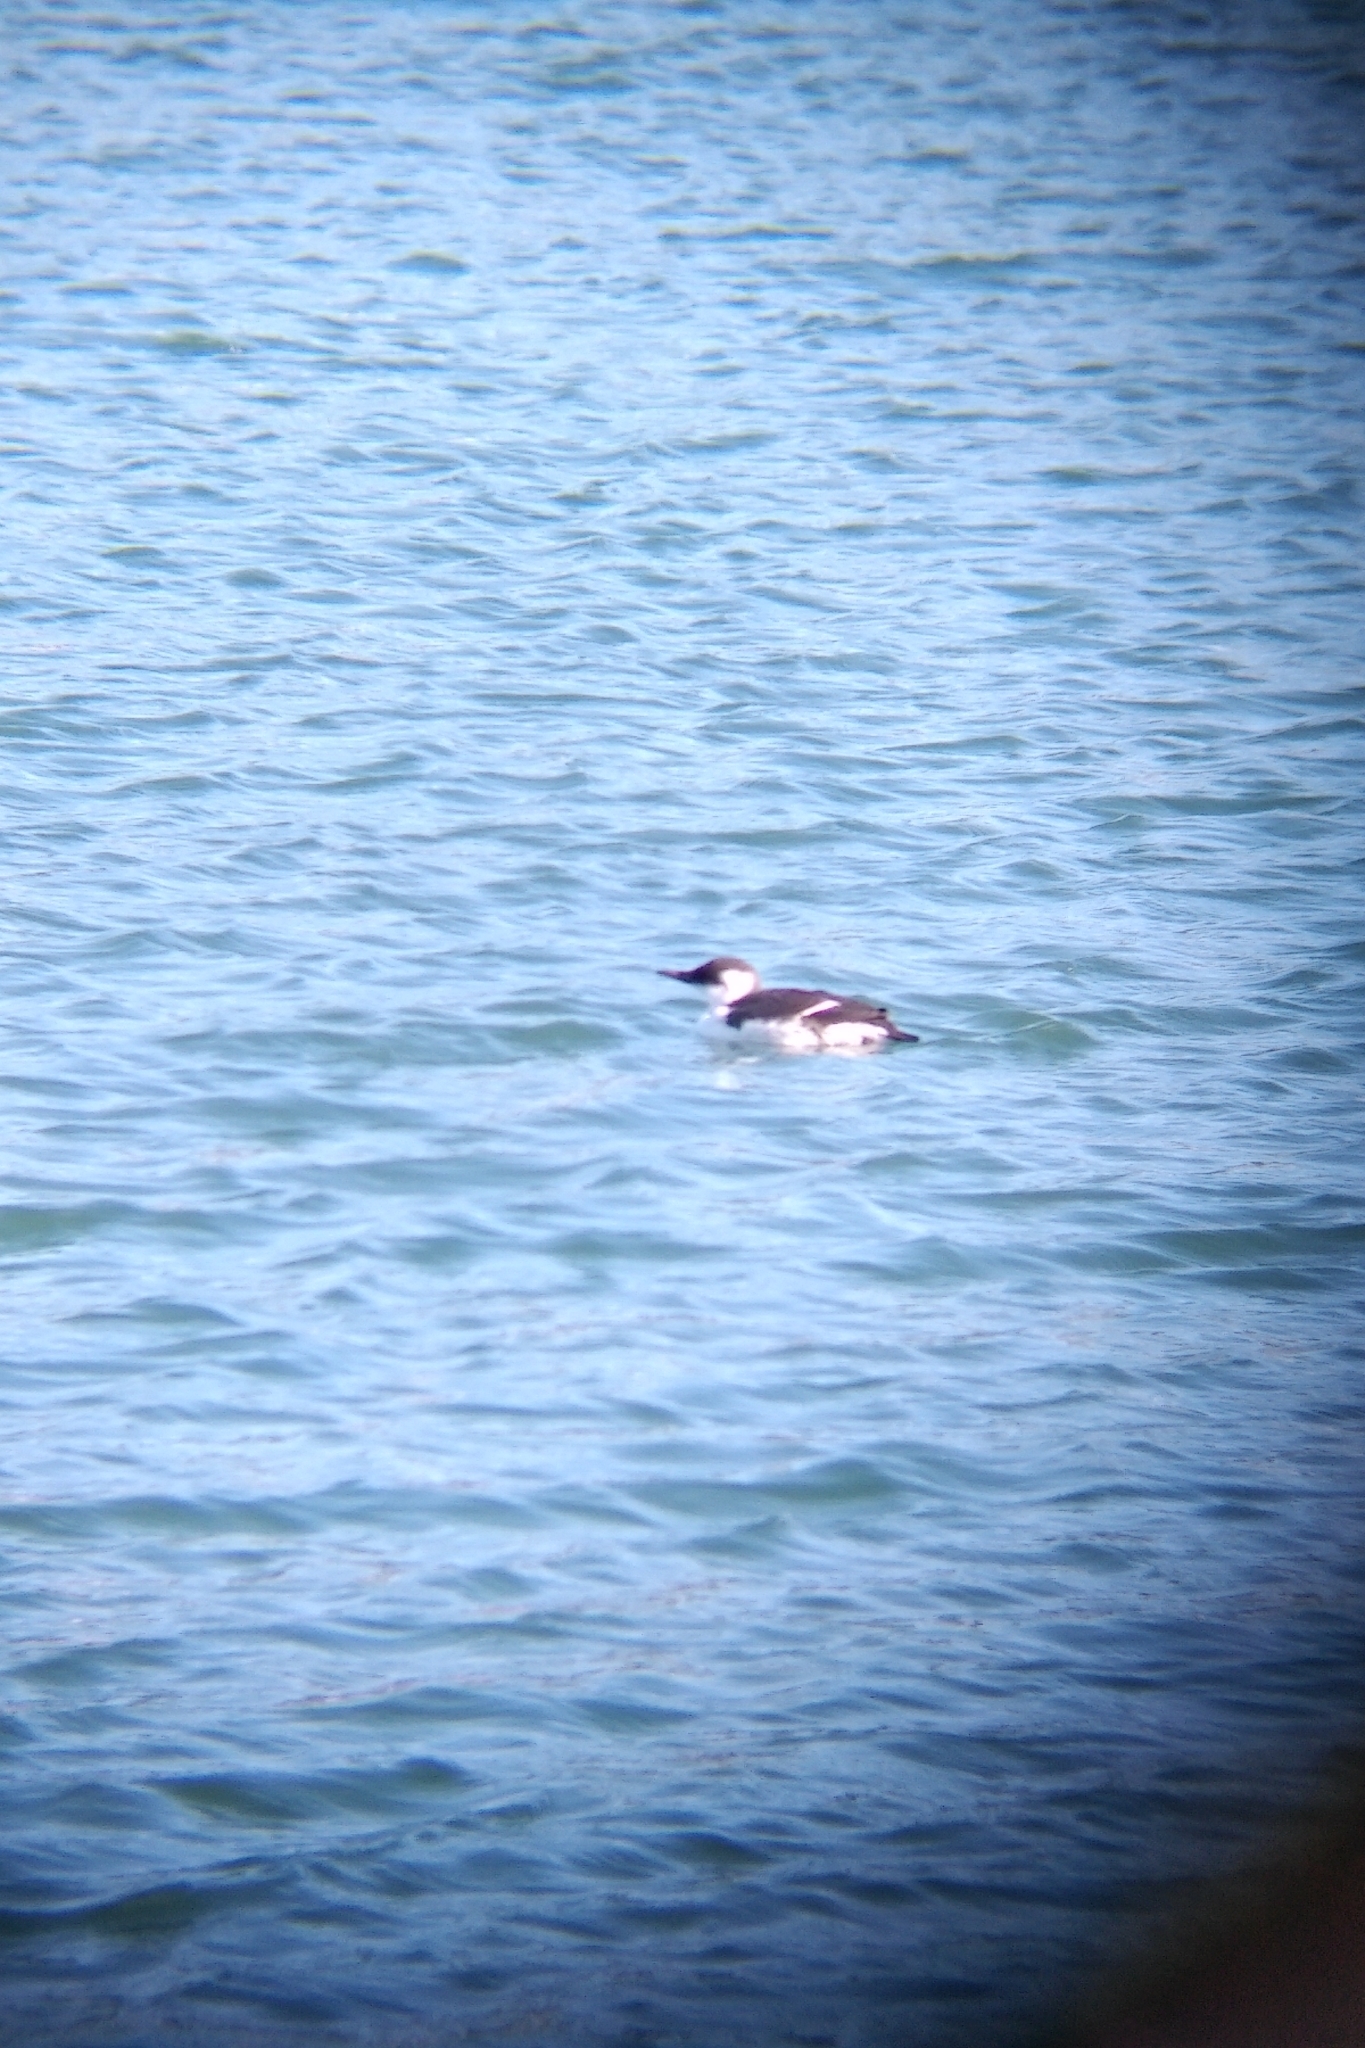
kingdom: Animalia
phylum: Chordata
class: Aves
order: Charadriiformes
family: Alcidae
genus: Uria
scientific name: Uria aalge
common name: Common murre
